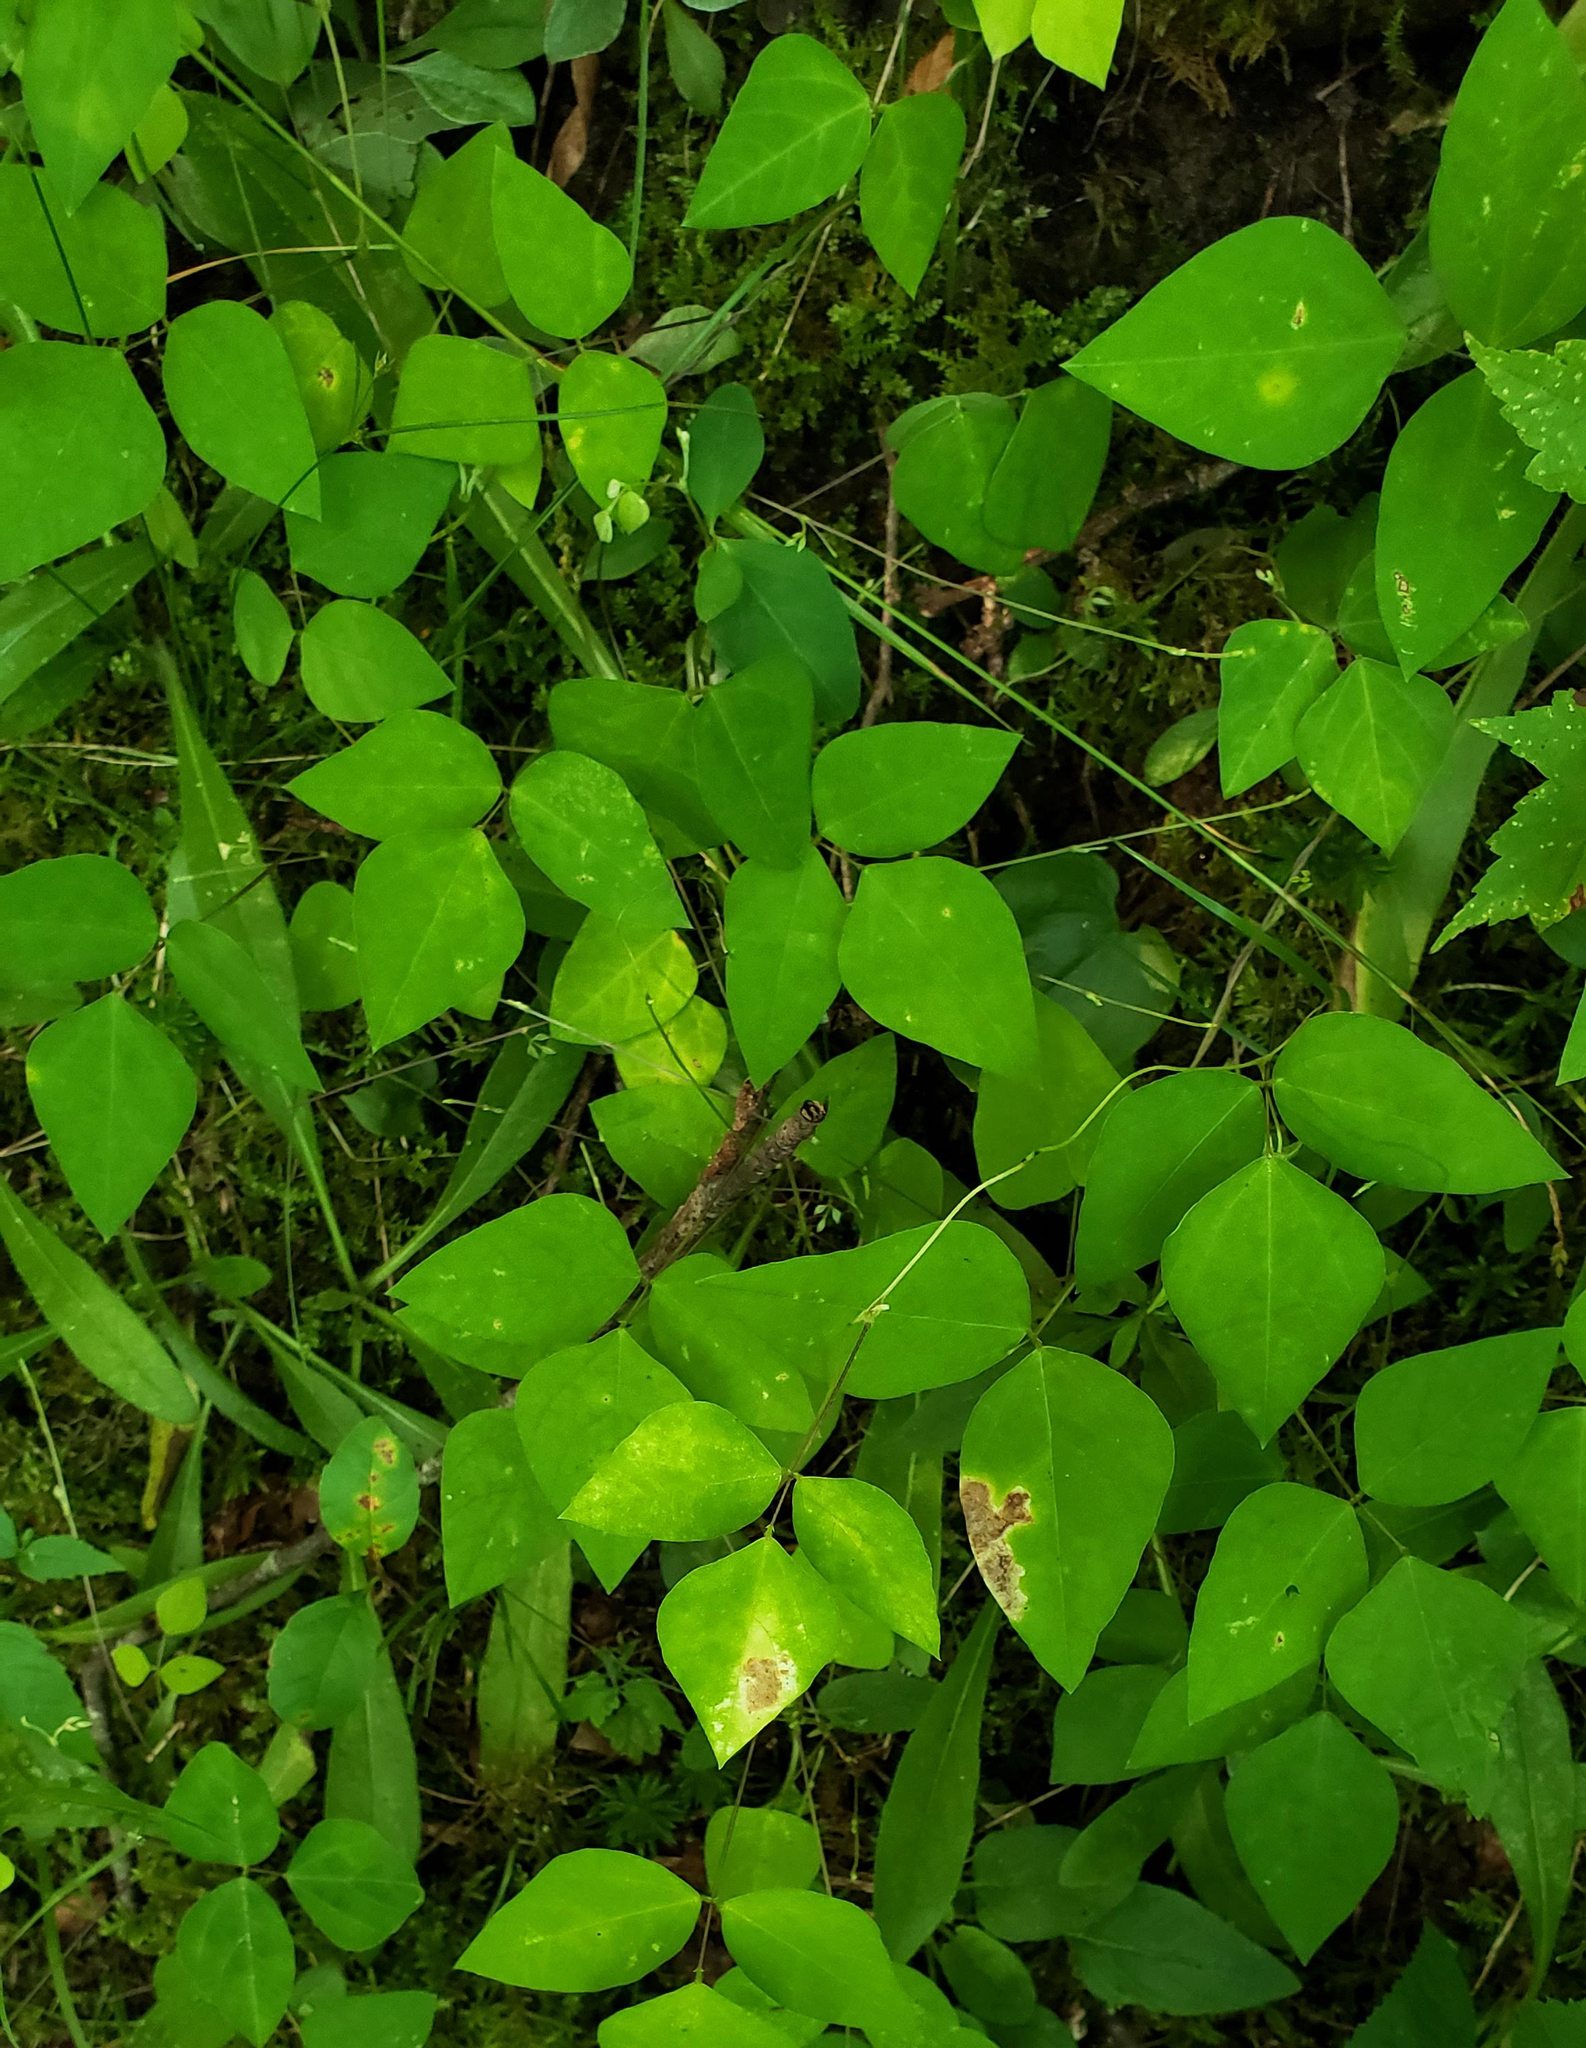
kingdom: Plantae
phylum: Tracheophyta
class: Magnoliopsida
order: Fabales
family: Fabaceae
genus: Amphicarpaea
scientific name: Amphicarpaea bracteata
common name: American hog peanut
